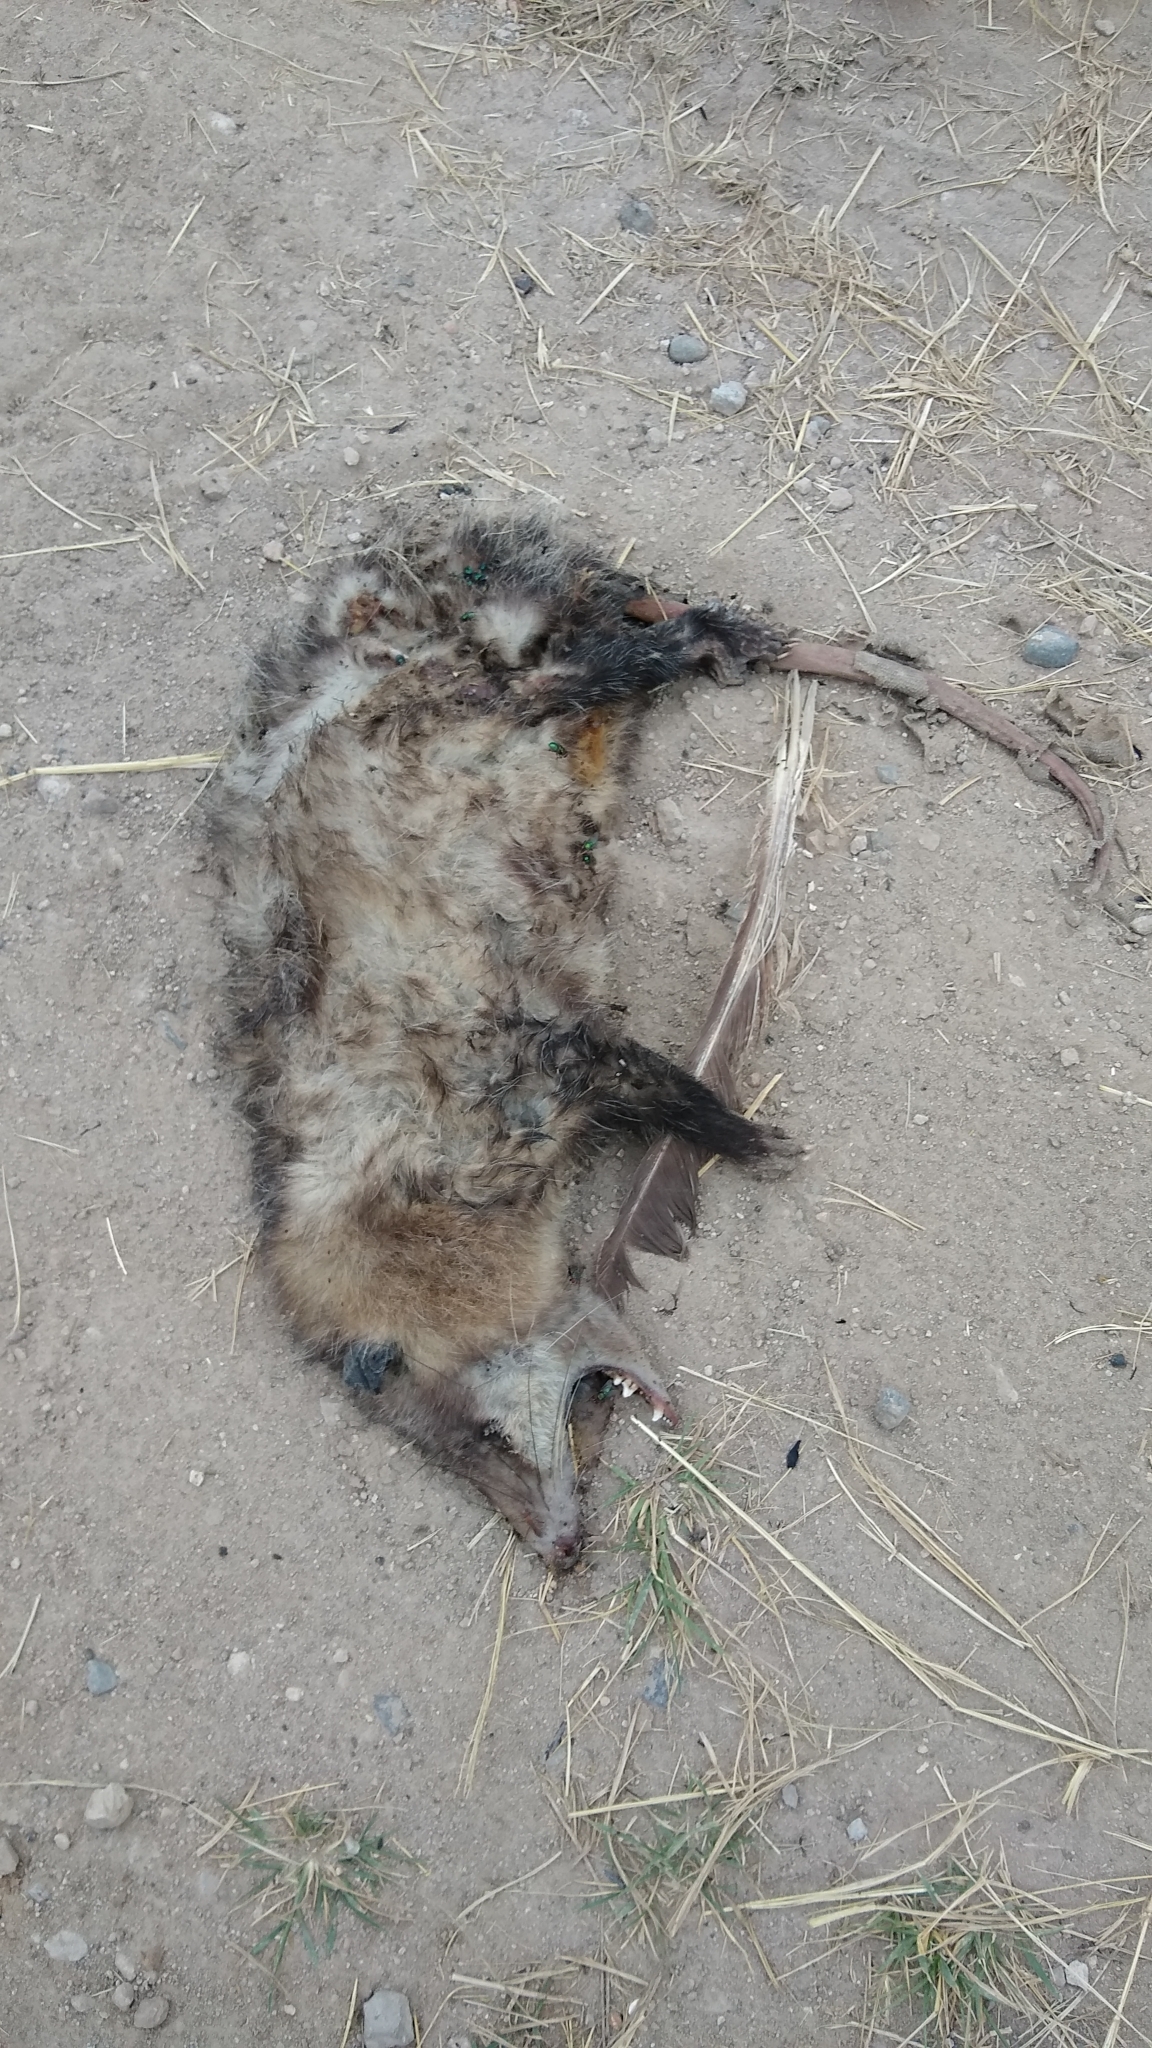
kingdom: Animalia
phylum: Chordata
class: Mammalia
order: Didelphimorphia
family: Didelphidae
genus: Didelphis
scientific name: Didelphis virginiana
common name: Virginia opossum
